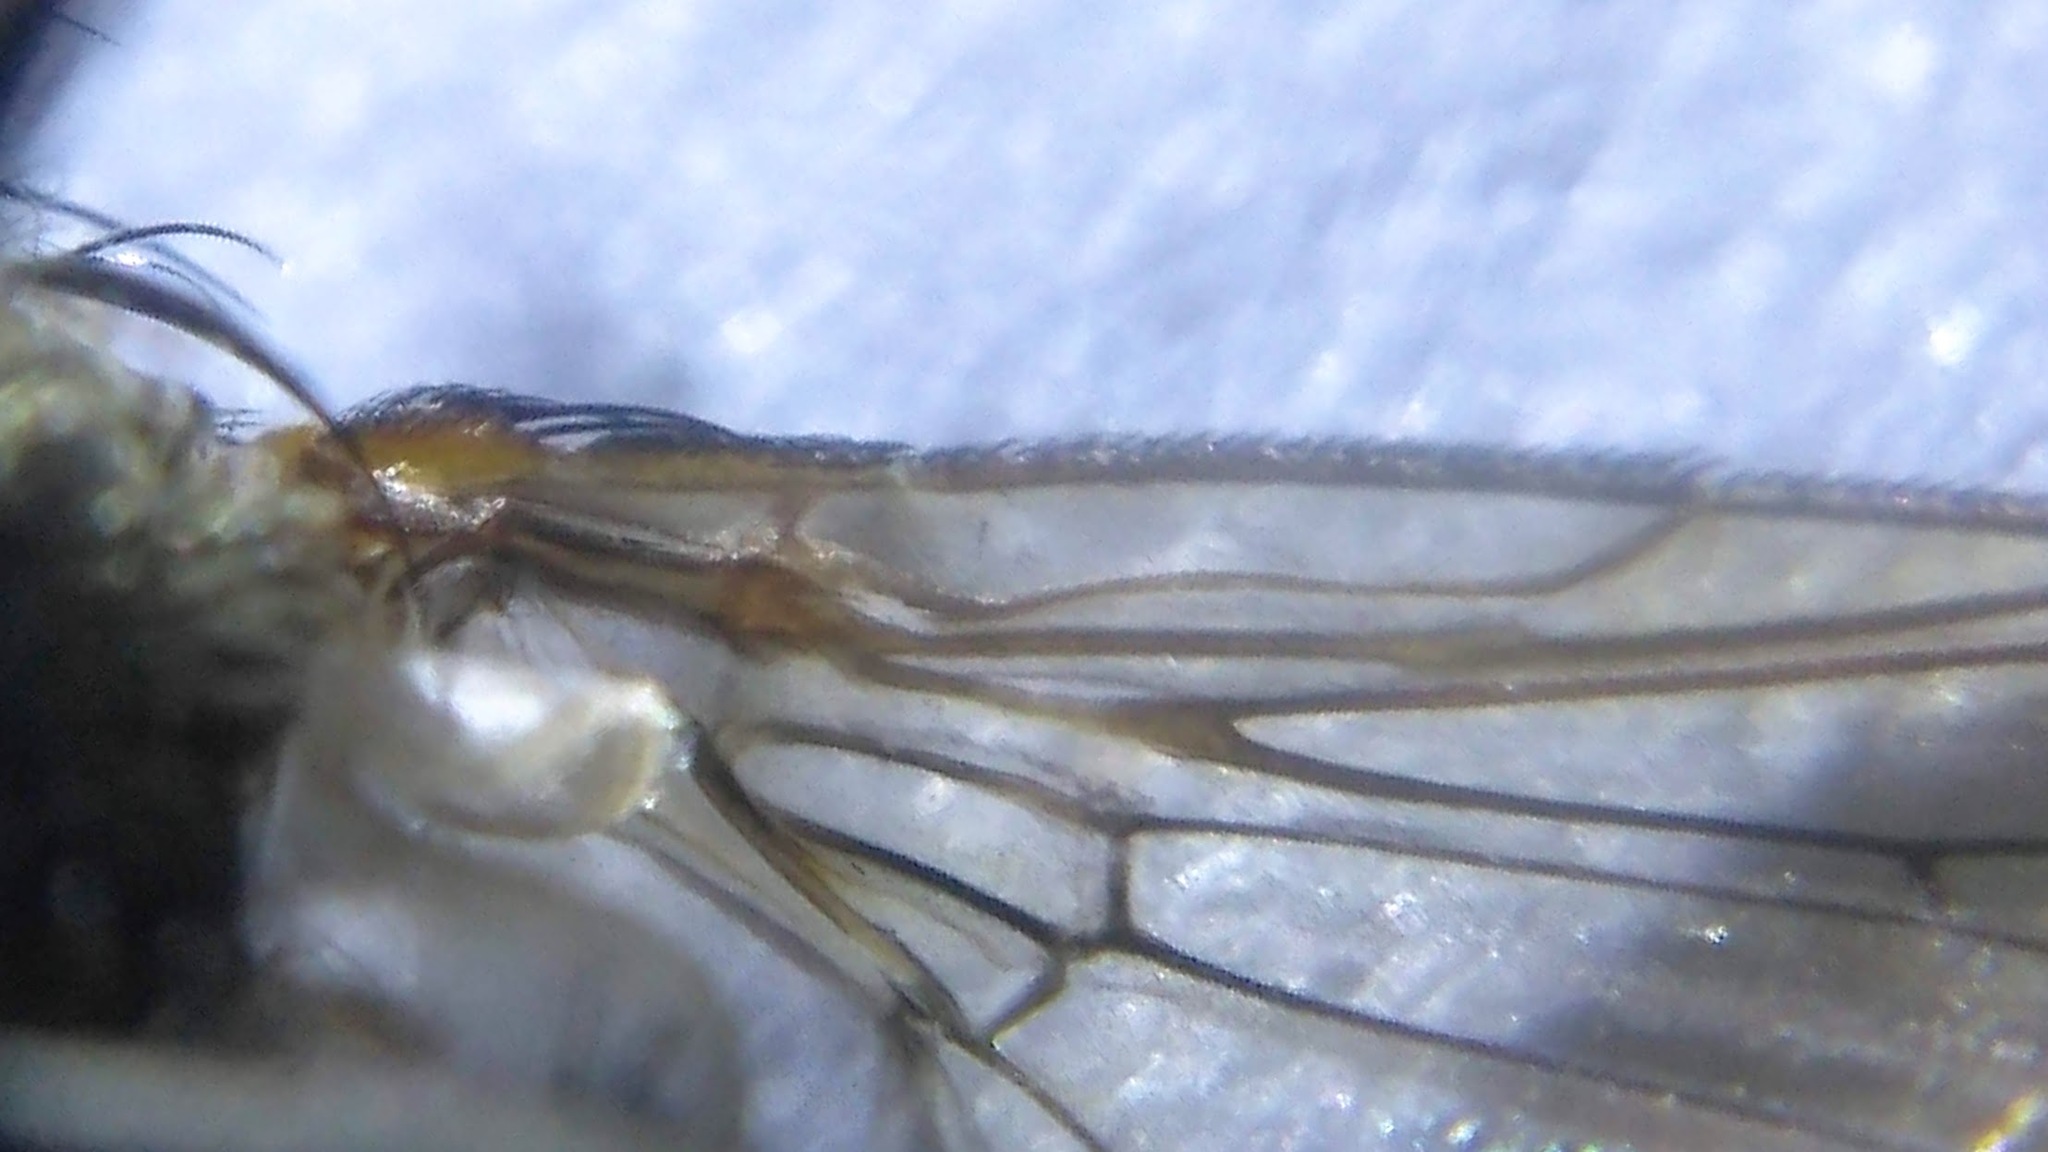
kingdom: Animalia
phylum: Arthropoda
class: Insecta
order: Diptera
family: Polleniidae
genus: Pollenia
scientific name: Pollenia rudis
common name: Awkward clusterfly
